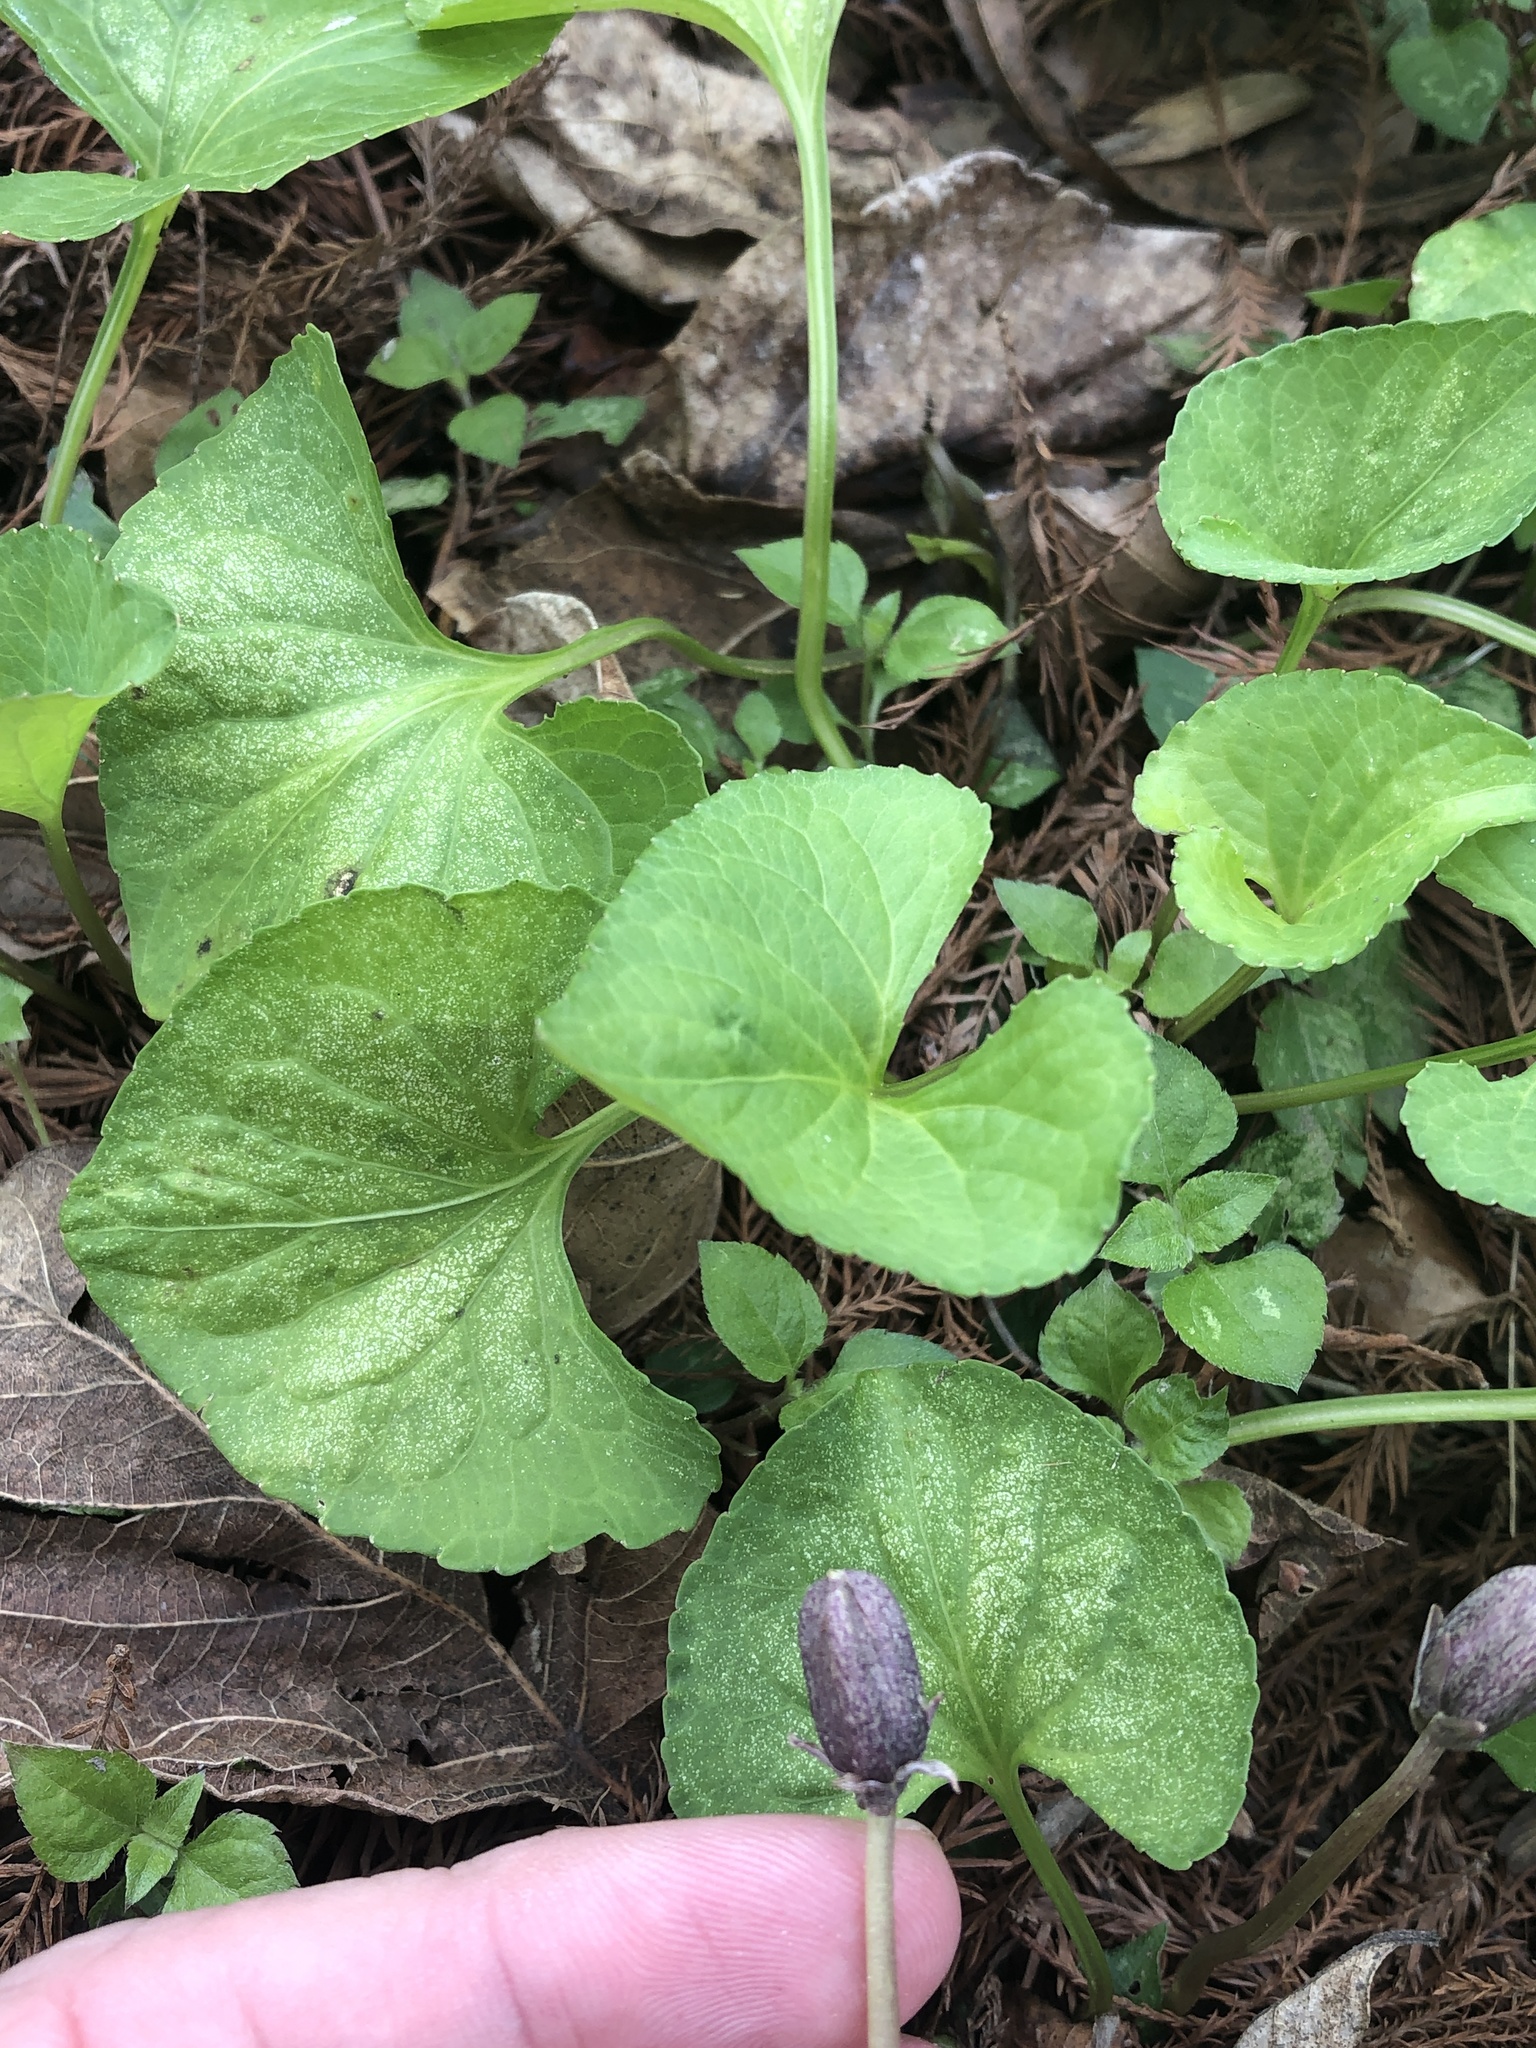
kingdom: Plantae
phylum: Tracheophyta
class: Magnoliopsida
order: Malpighiales
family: Violaceae
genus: Viola
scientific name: Viola sororia
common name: Dooryard violet
